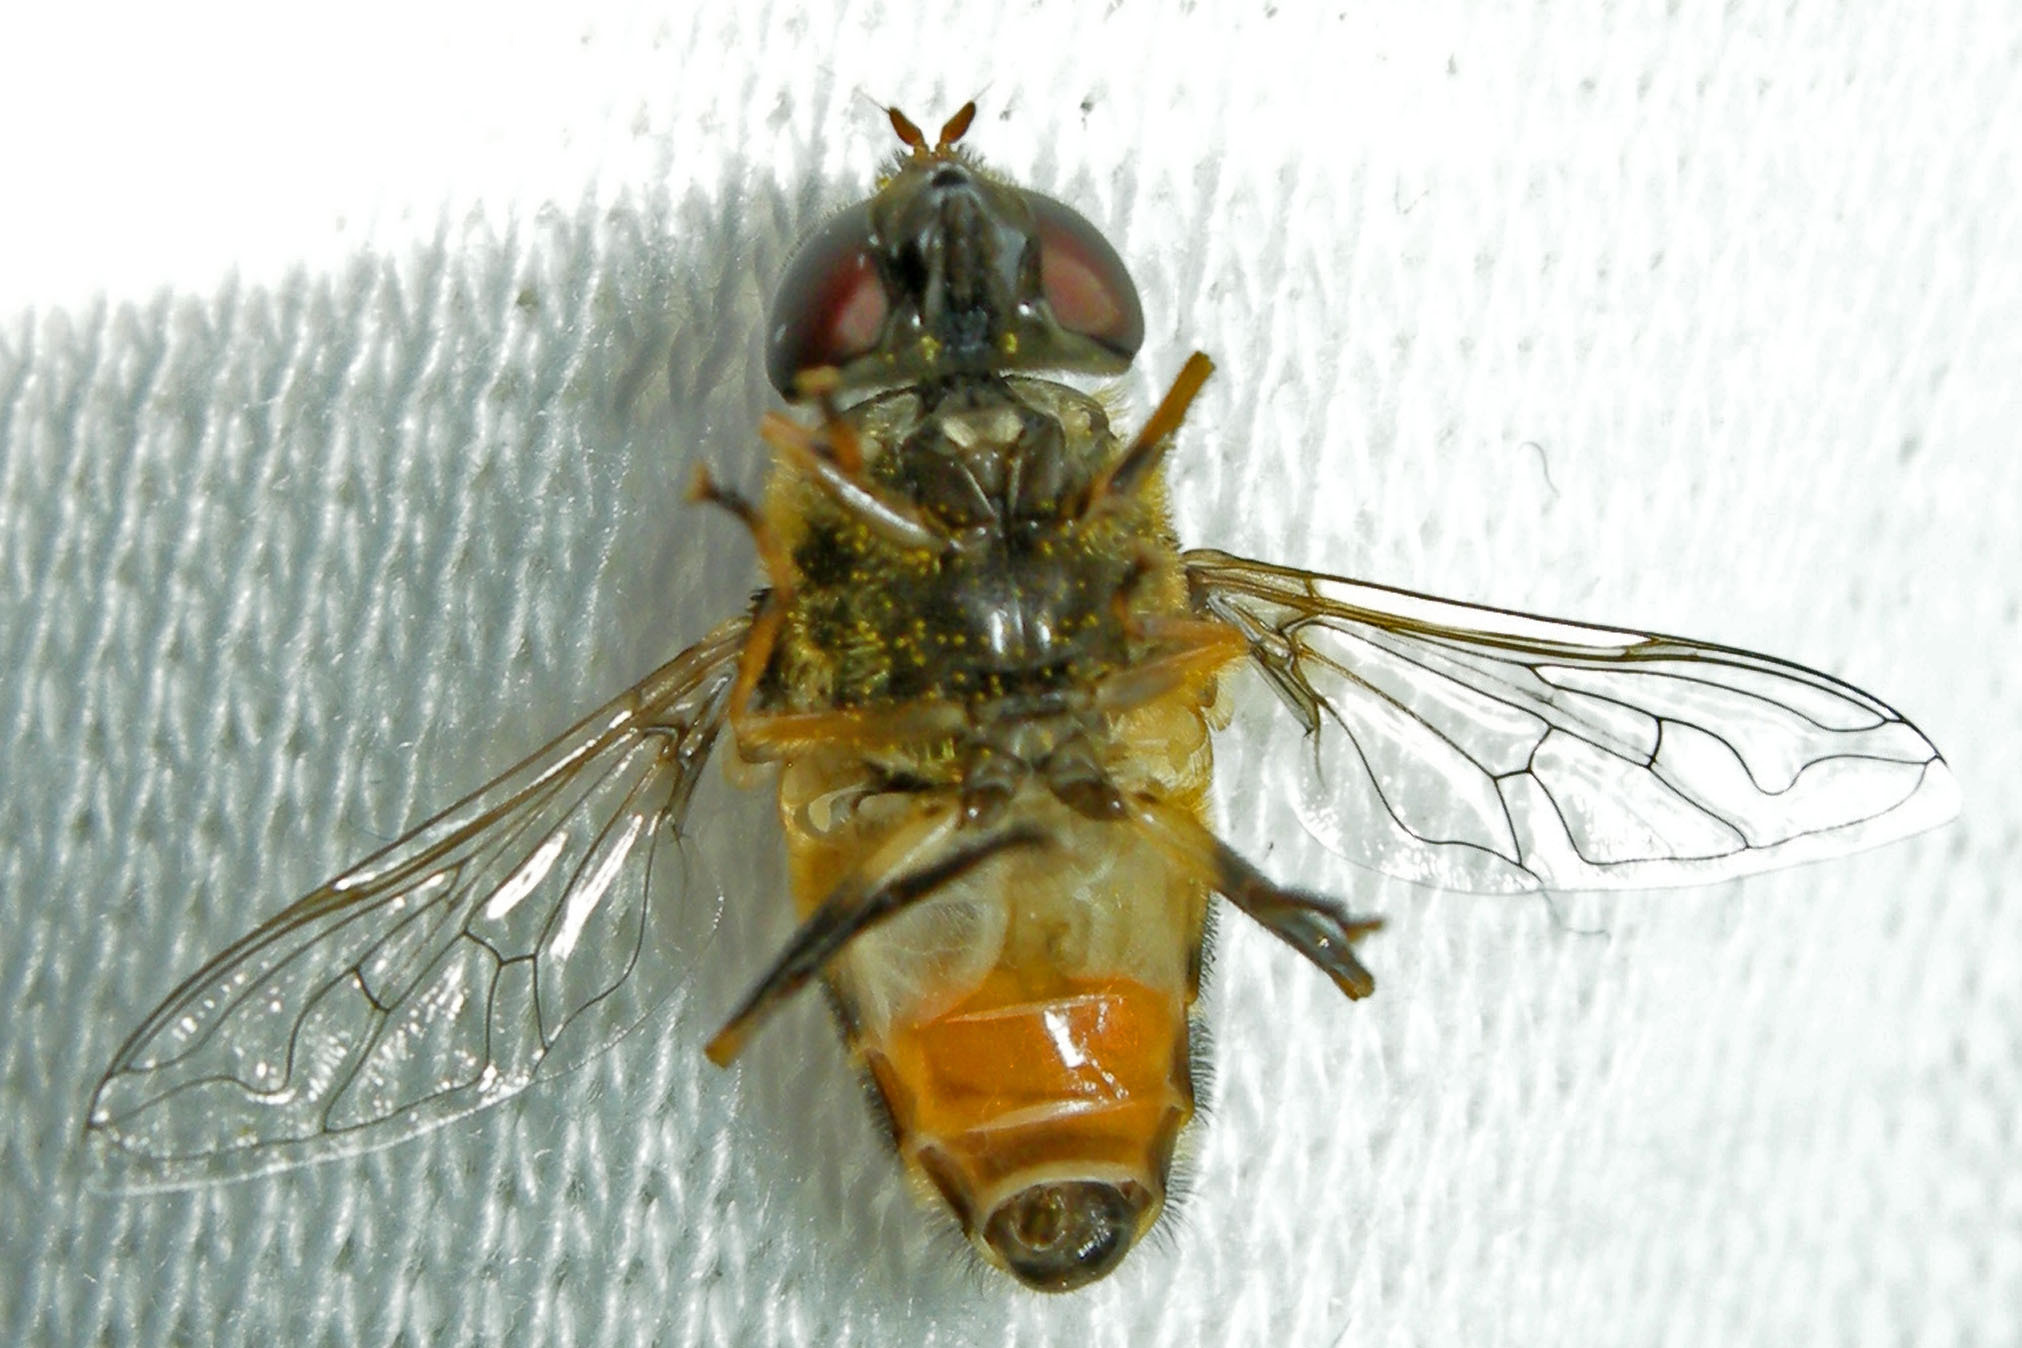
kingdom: Animalia
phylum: Arthropoda
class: Insecta
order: Diptera
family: Syrphidae
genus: Eristalis
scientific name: Eristalis transversa
